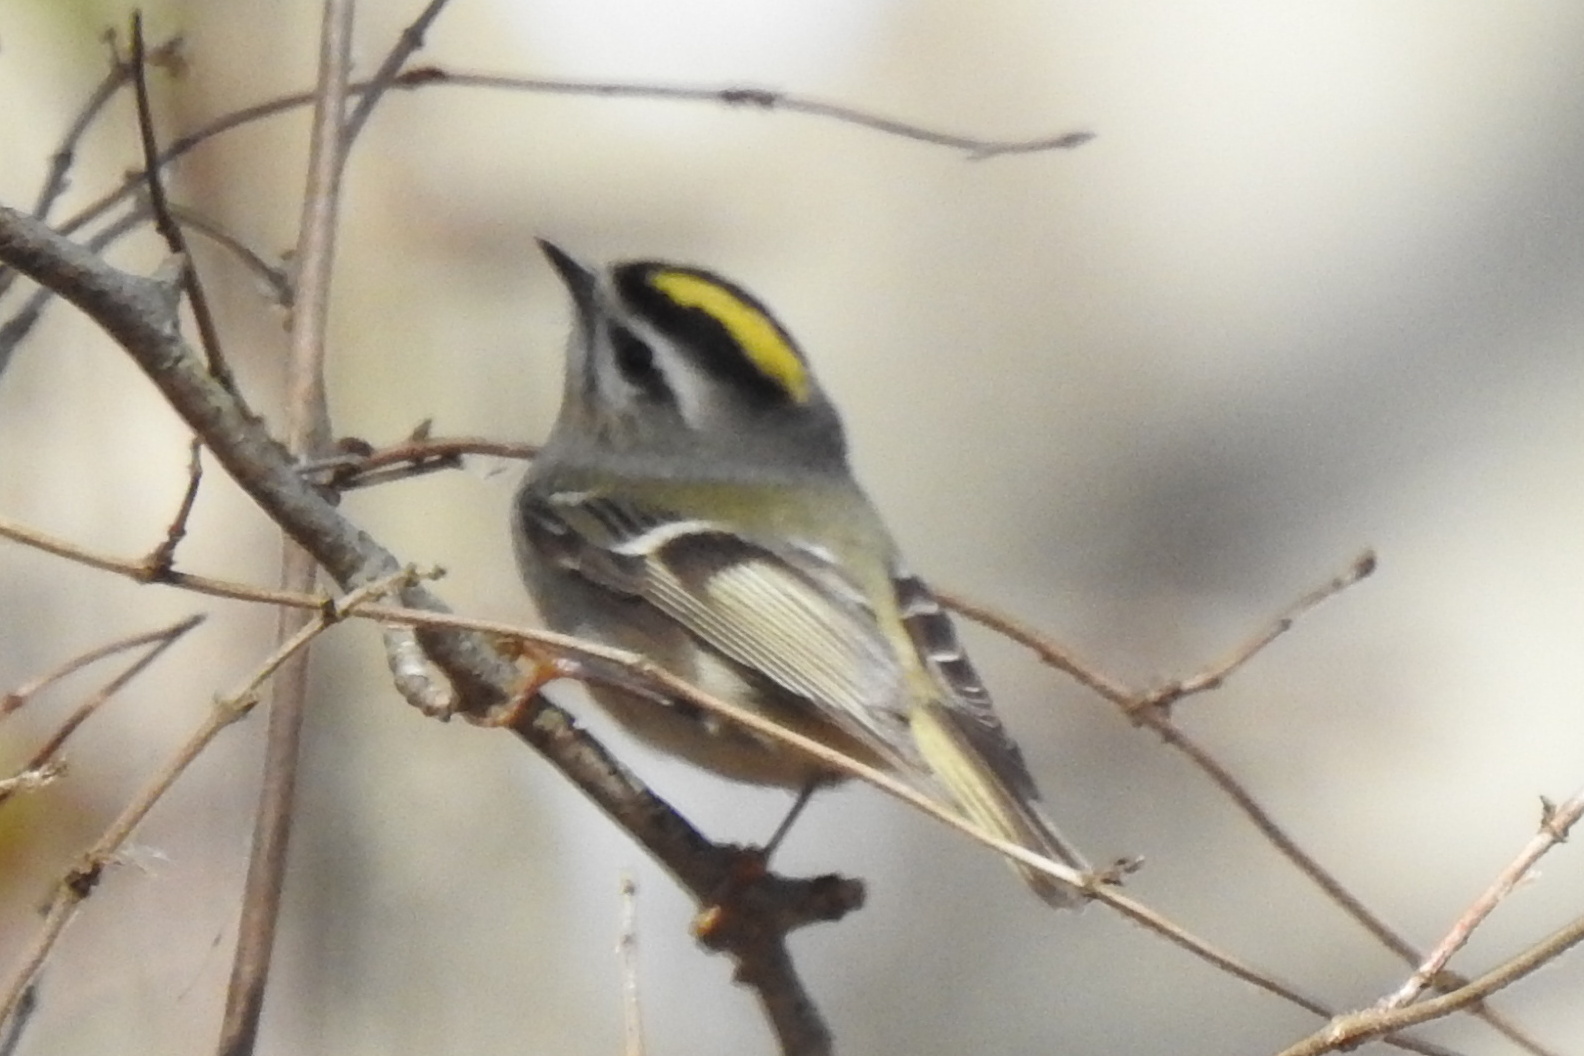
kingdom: Animalia
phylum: Chordata
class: Aves
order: Passeriformes
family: Regulidae
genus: Regulus
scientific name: Regulus satrapa
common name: Golden-crowned kinglet
